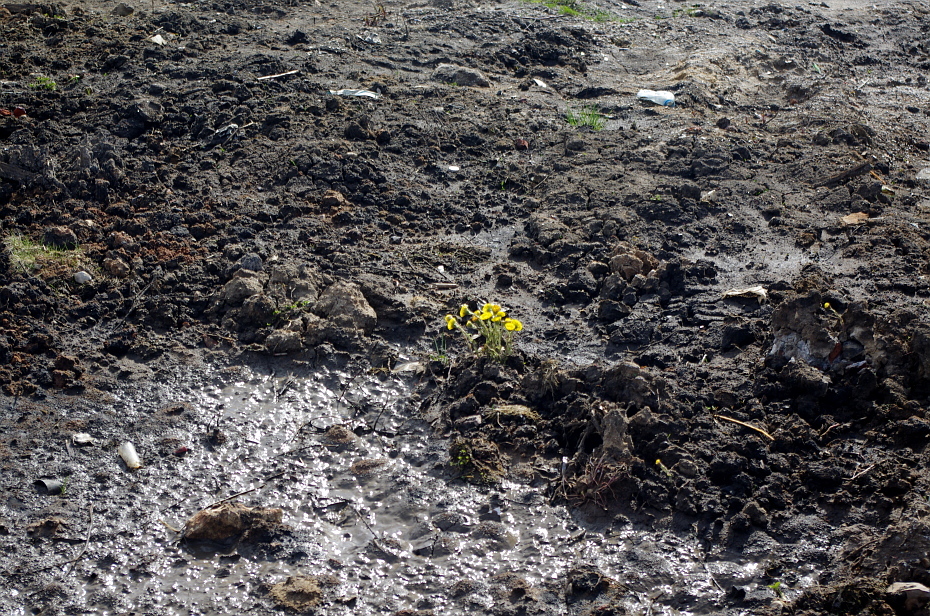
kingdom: Plantae
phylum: Tracheophyta
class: Magnoliopsida
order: Asterales
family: Asteraceae
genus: Tussilago
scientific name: Tussilago farfara
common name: Coltsfoot
